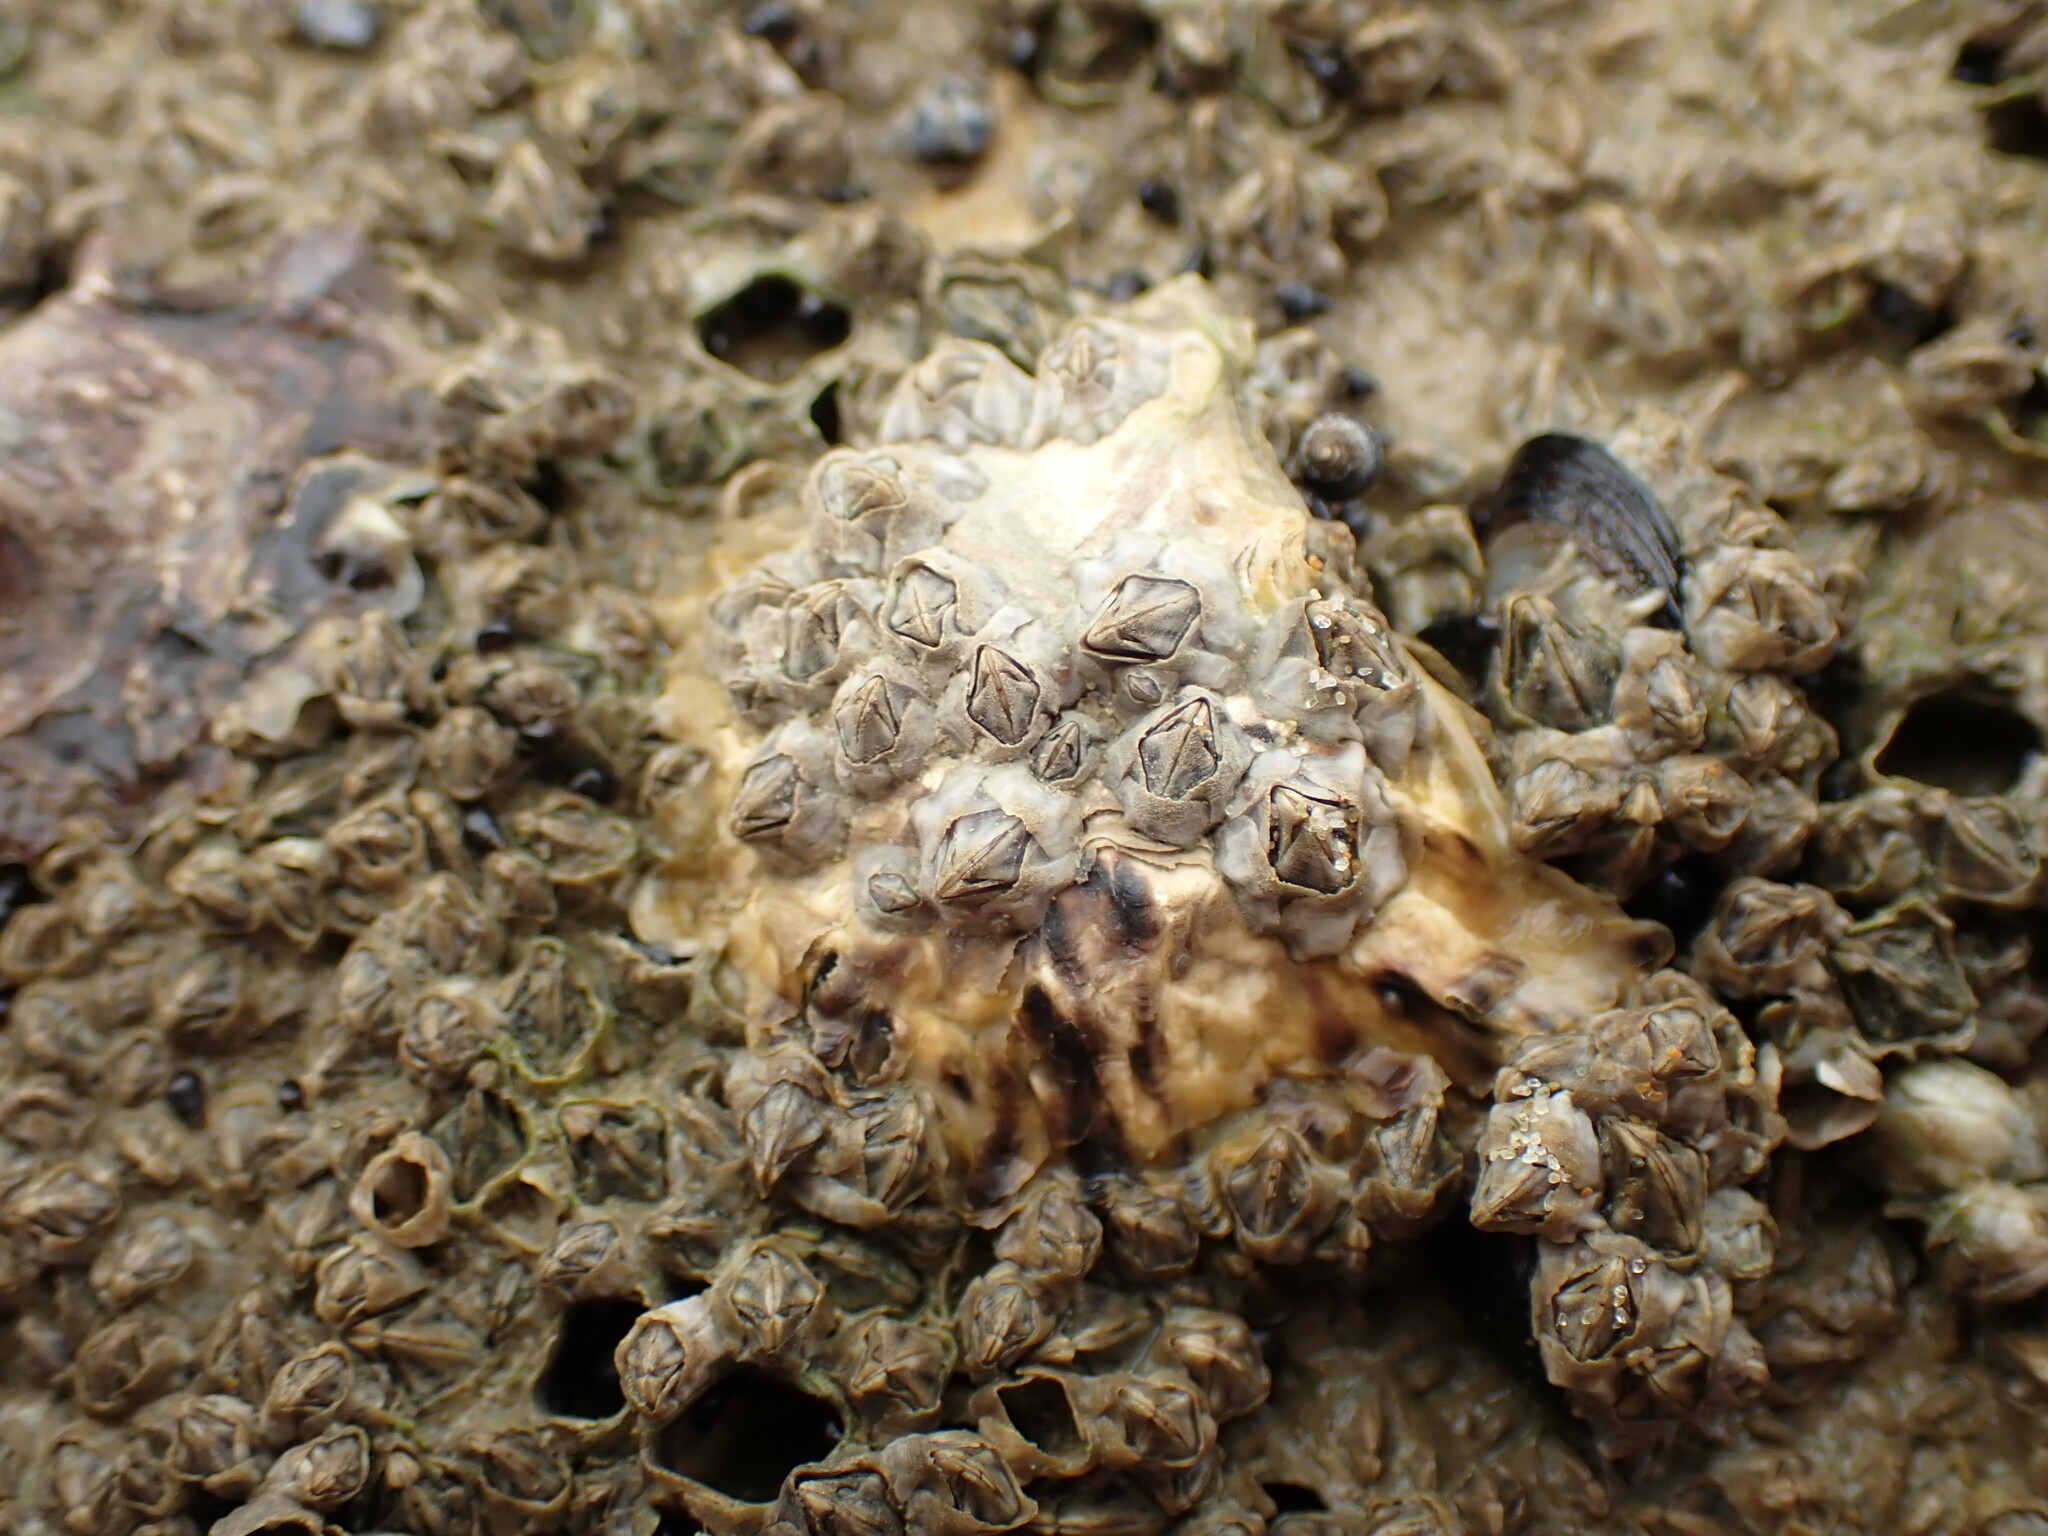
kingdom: Animalia
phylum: Arthropoda
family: Elminiidae
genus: Austrominius
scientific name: Austrominius modestus
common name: Australasian barnacle
